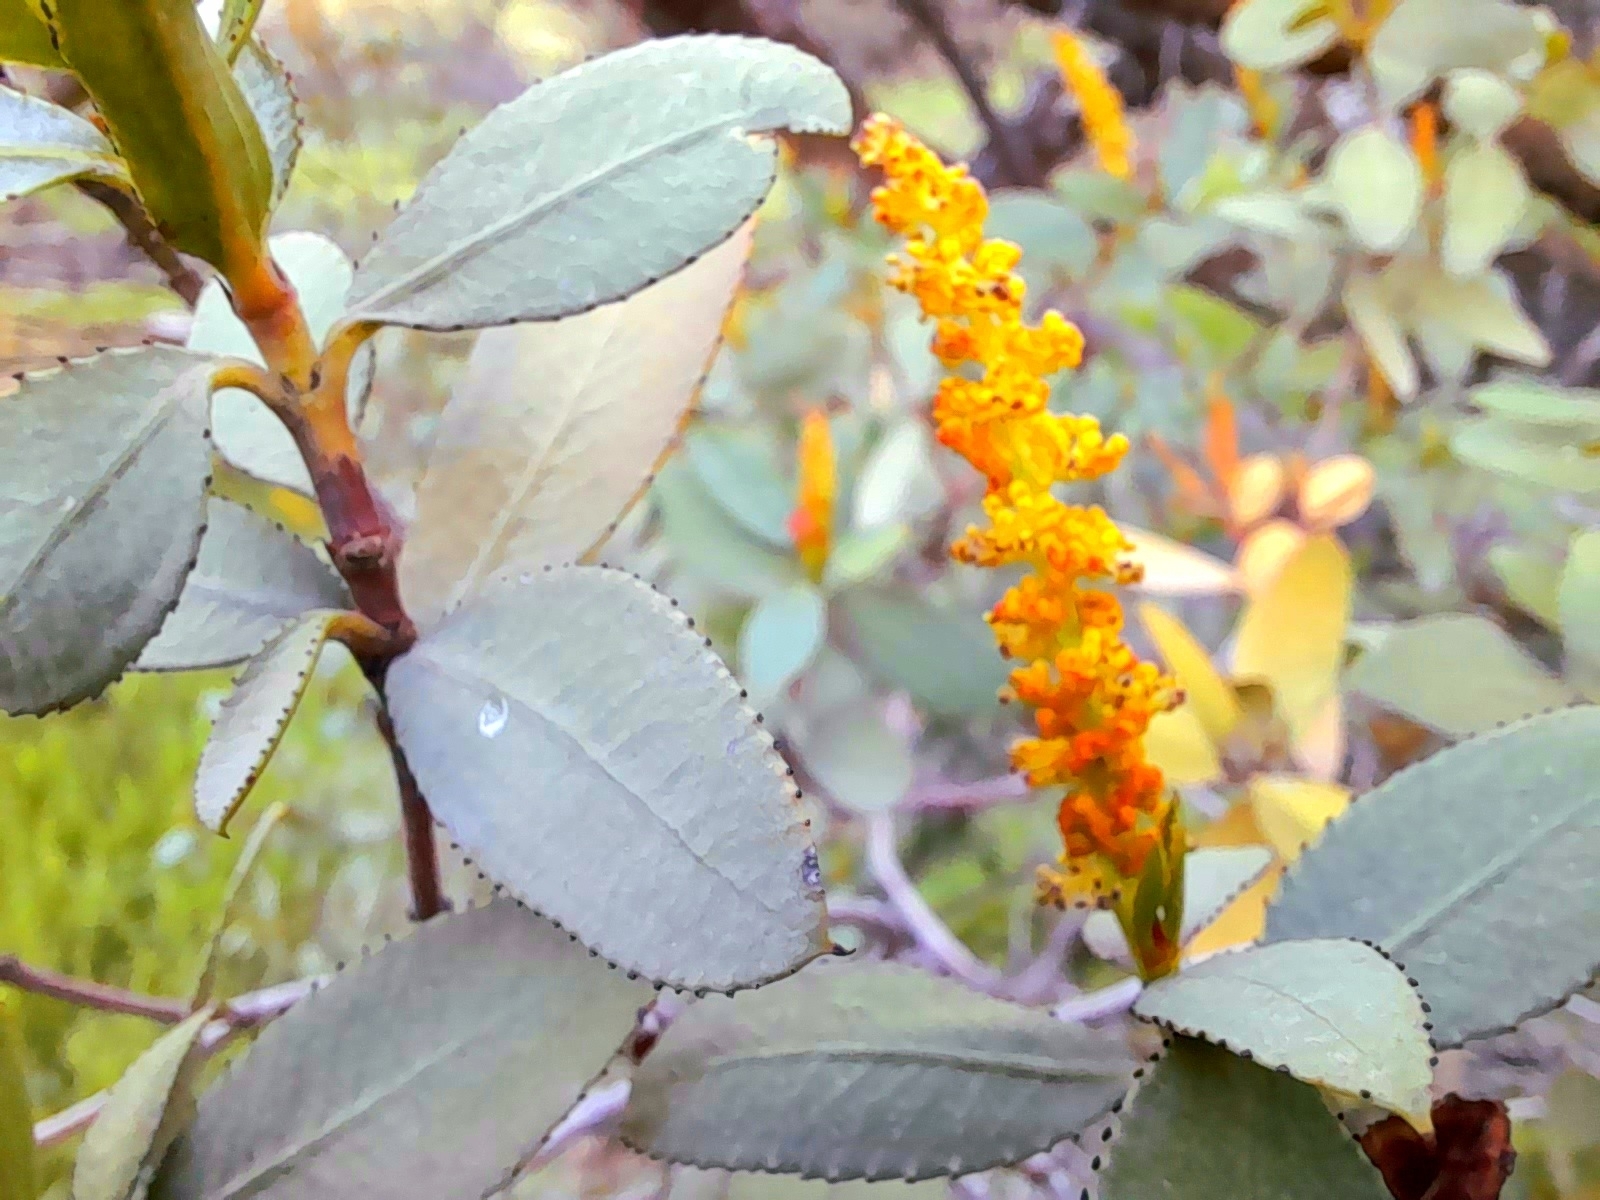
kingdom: Plantae
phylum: Tracheophyta
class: Magnoliopsida
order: Malpighiales
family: Euphorbiaceae
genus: Colliguaja
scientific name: Colliguaja odorifera
